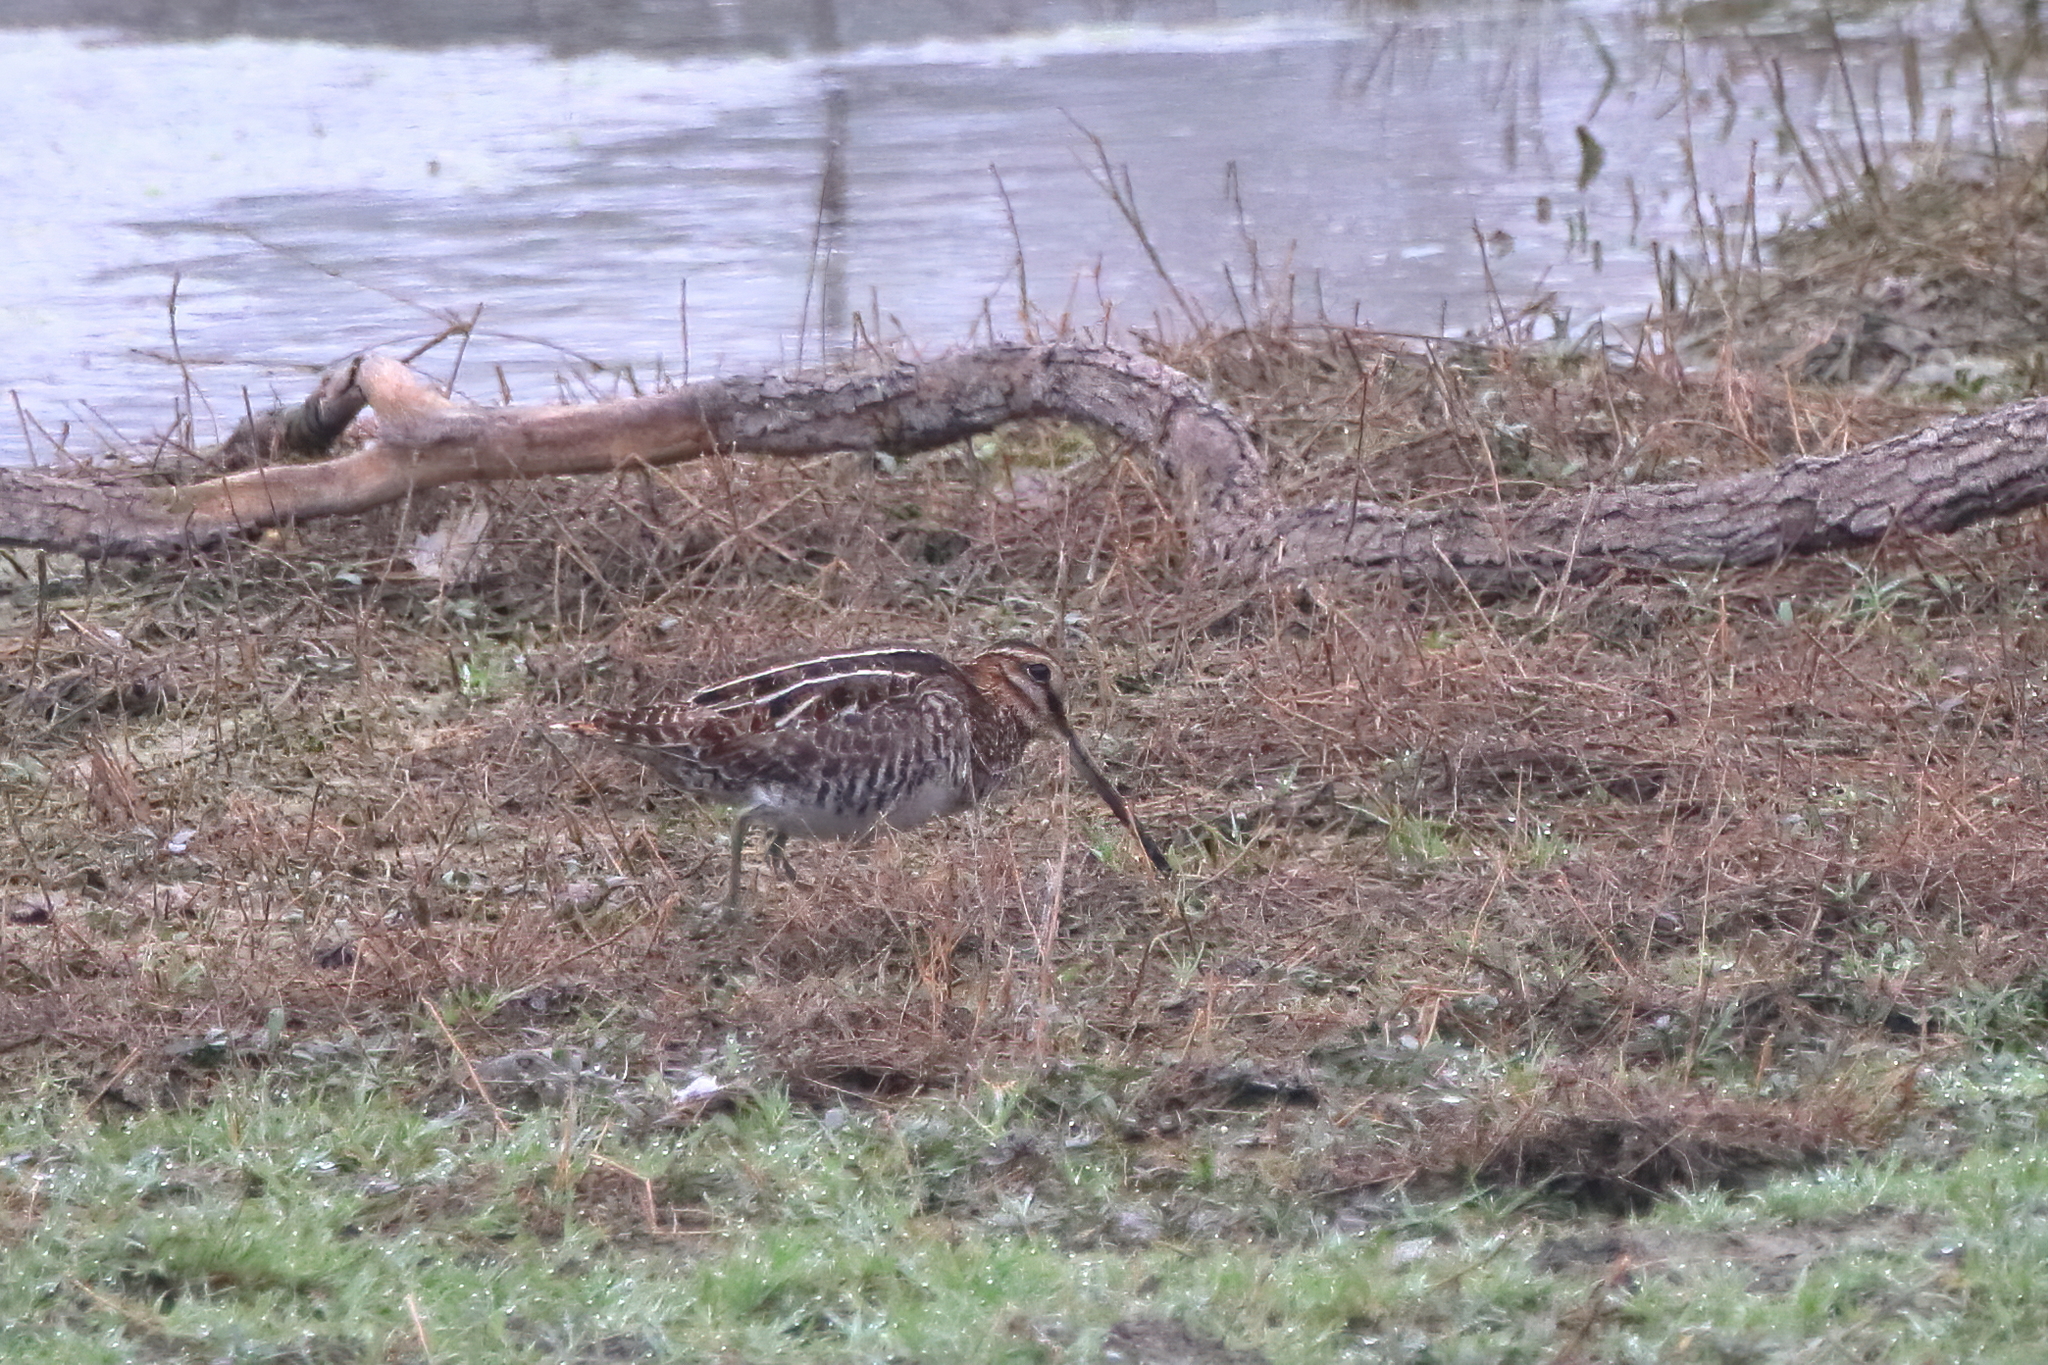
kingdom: Animalia
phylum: Chordata
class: Aves
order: Charadriiformes
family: Scolopacidae
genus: Gallinago
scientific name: Gallinago delicata
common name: Wilson's snipe
